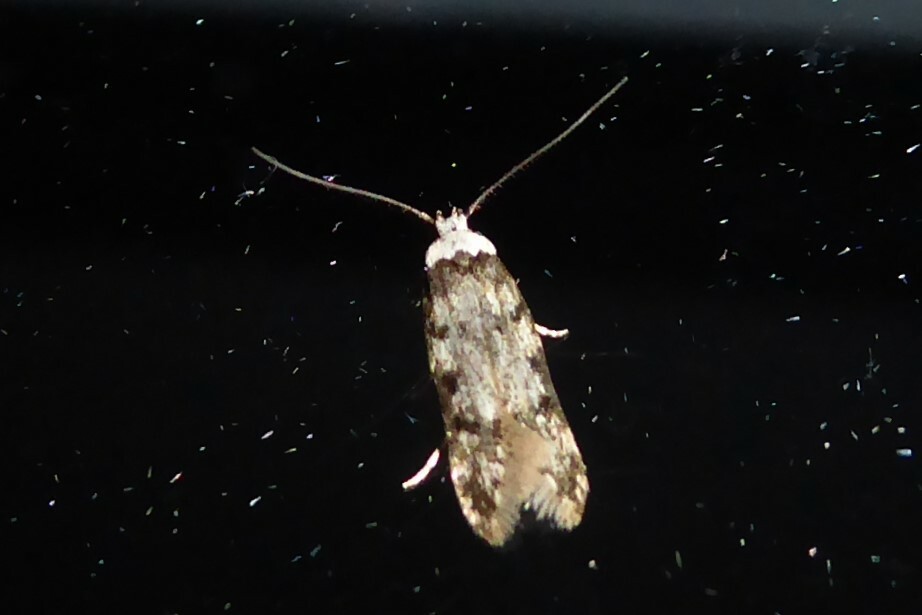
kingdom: Animalia
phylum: Arthropoda
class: Insecta
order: Lepidoptera
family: Oecophoridae
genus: Endrosis
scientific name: Endrosis sarcitrella
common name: White-shouldered house moth
